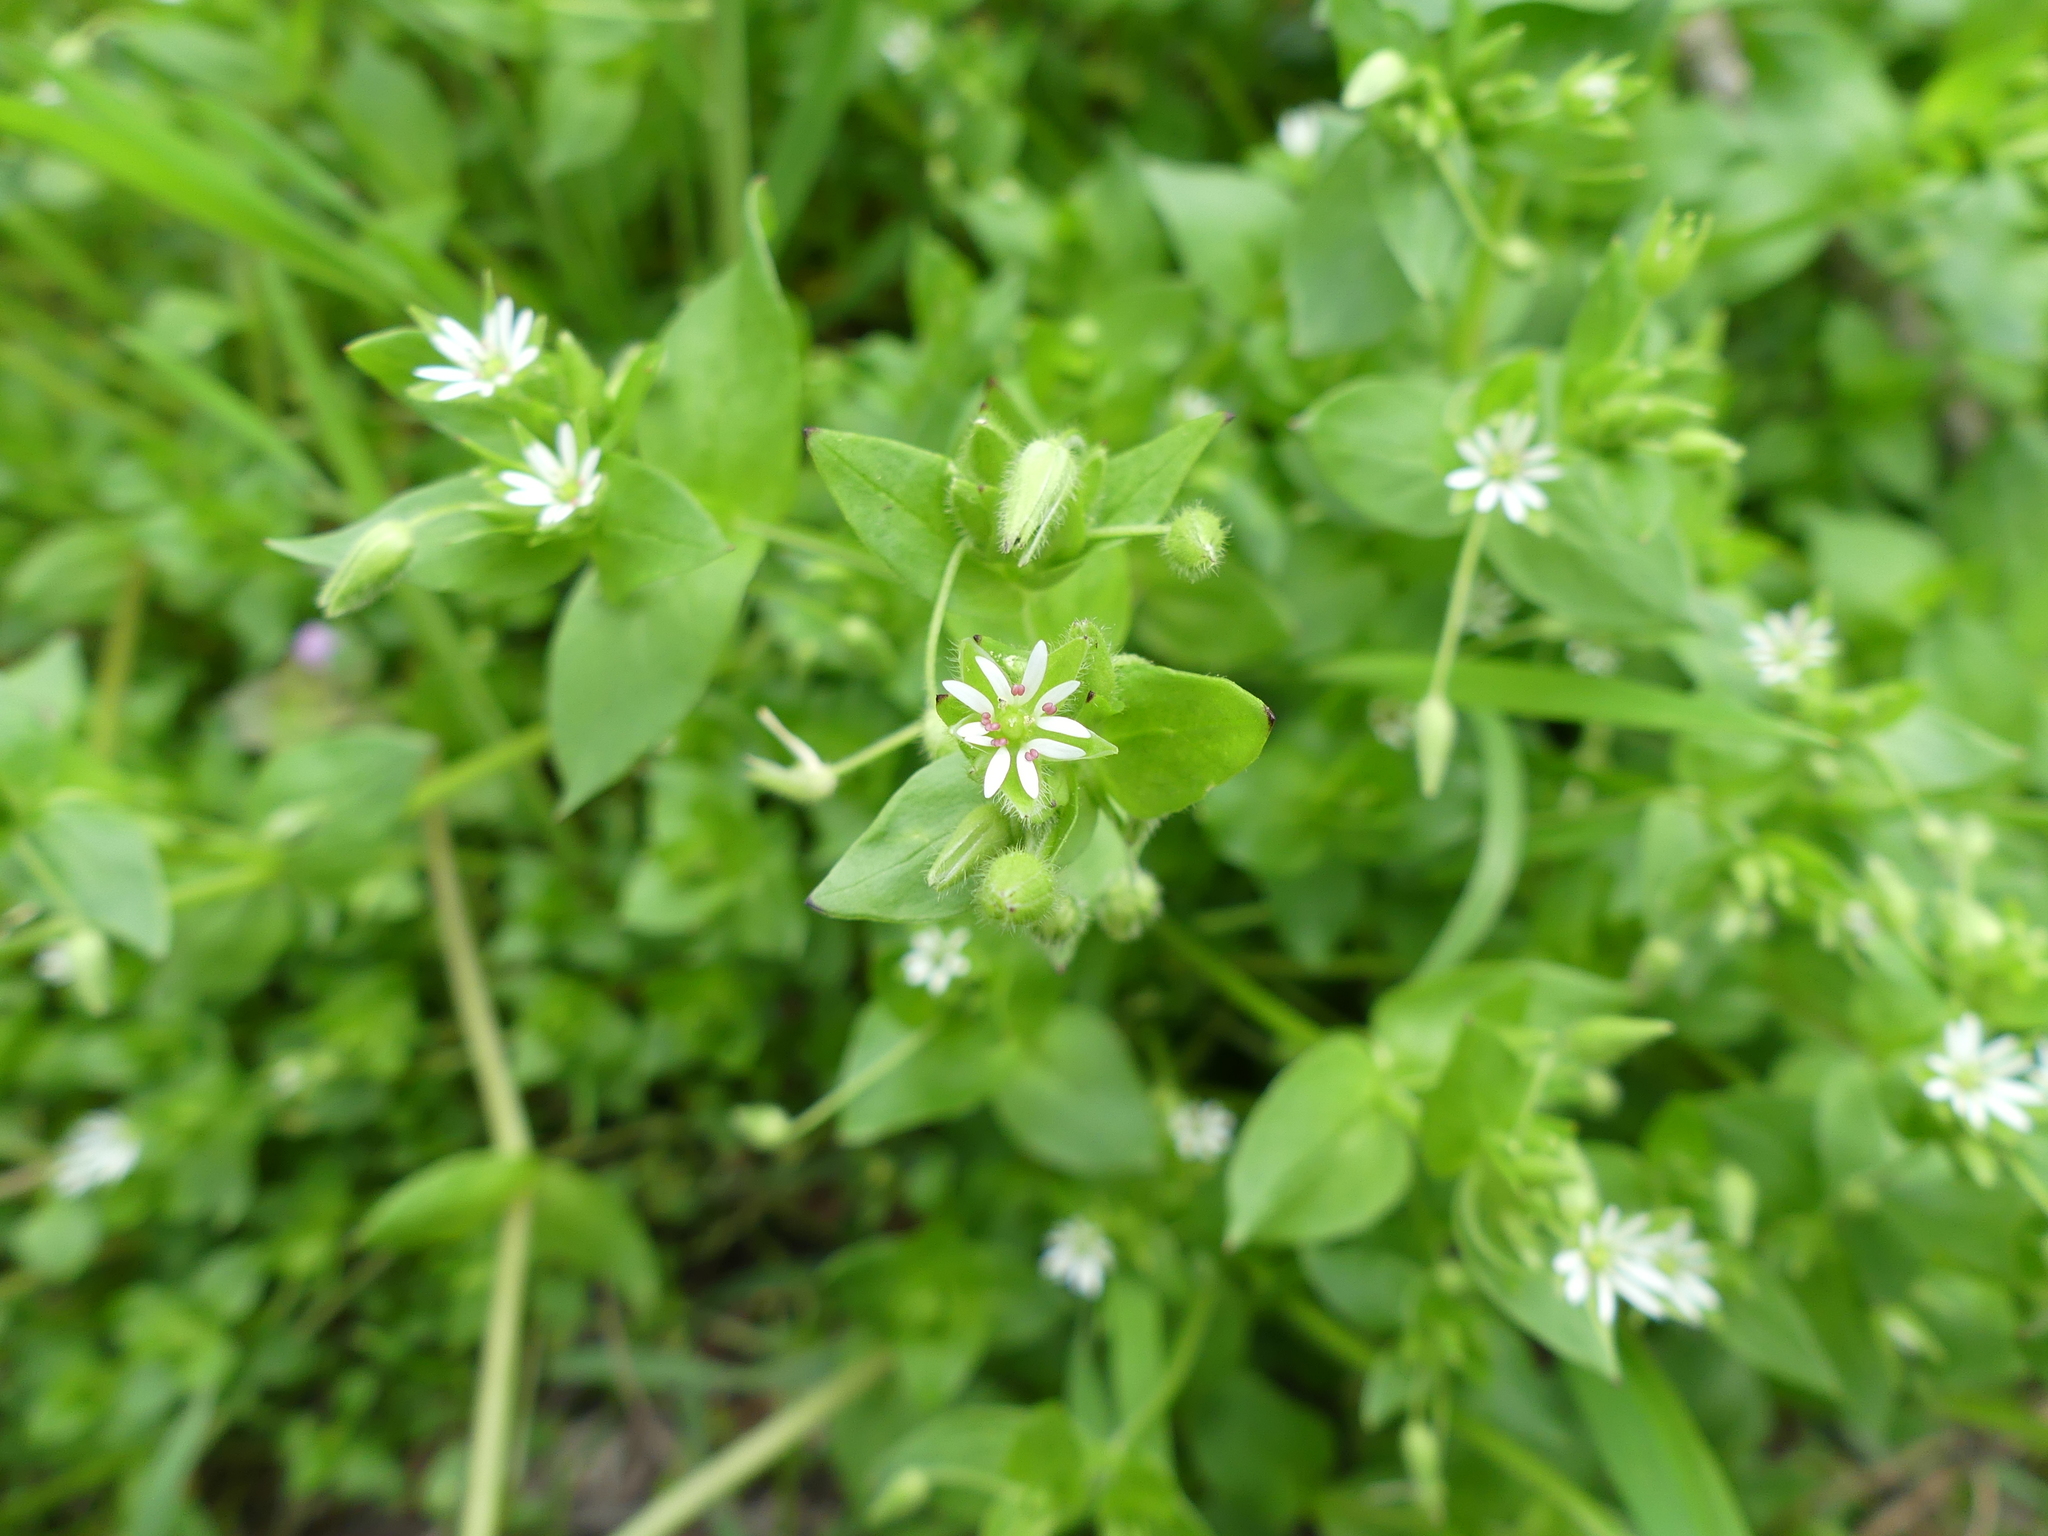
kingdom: Plantae
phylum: Tracheophyta
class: Magnoliopsida
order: Caryophyllales
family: Caryophyllaceae
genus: Stellaria
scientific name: Stellaria media
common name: Common chickweed
